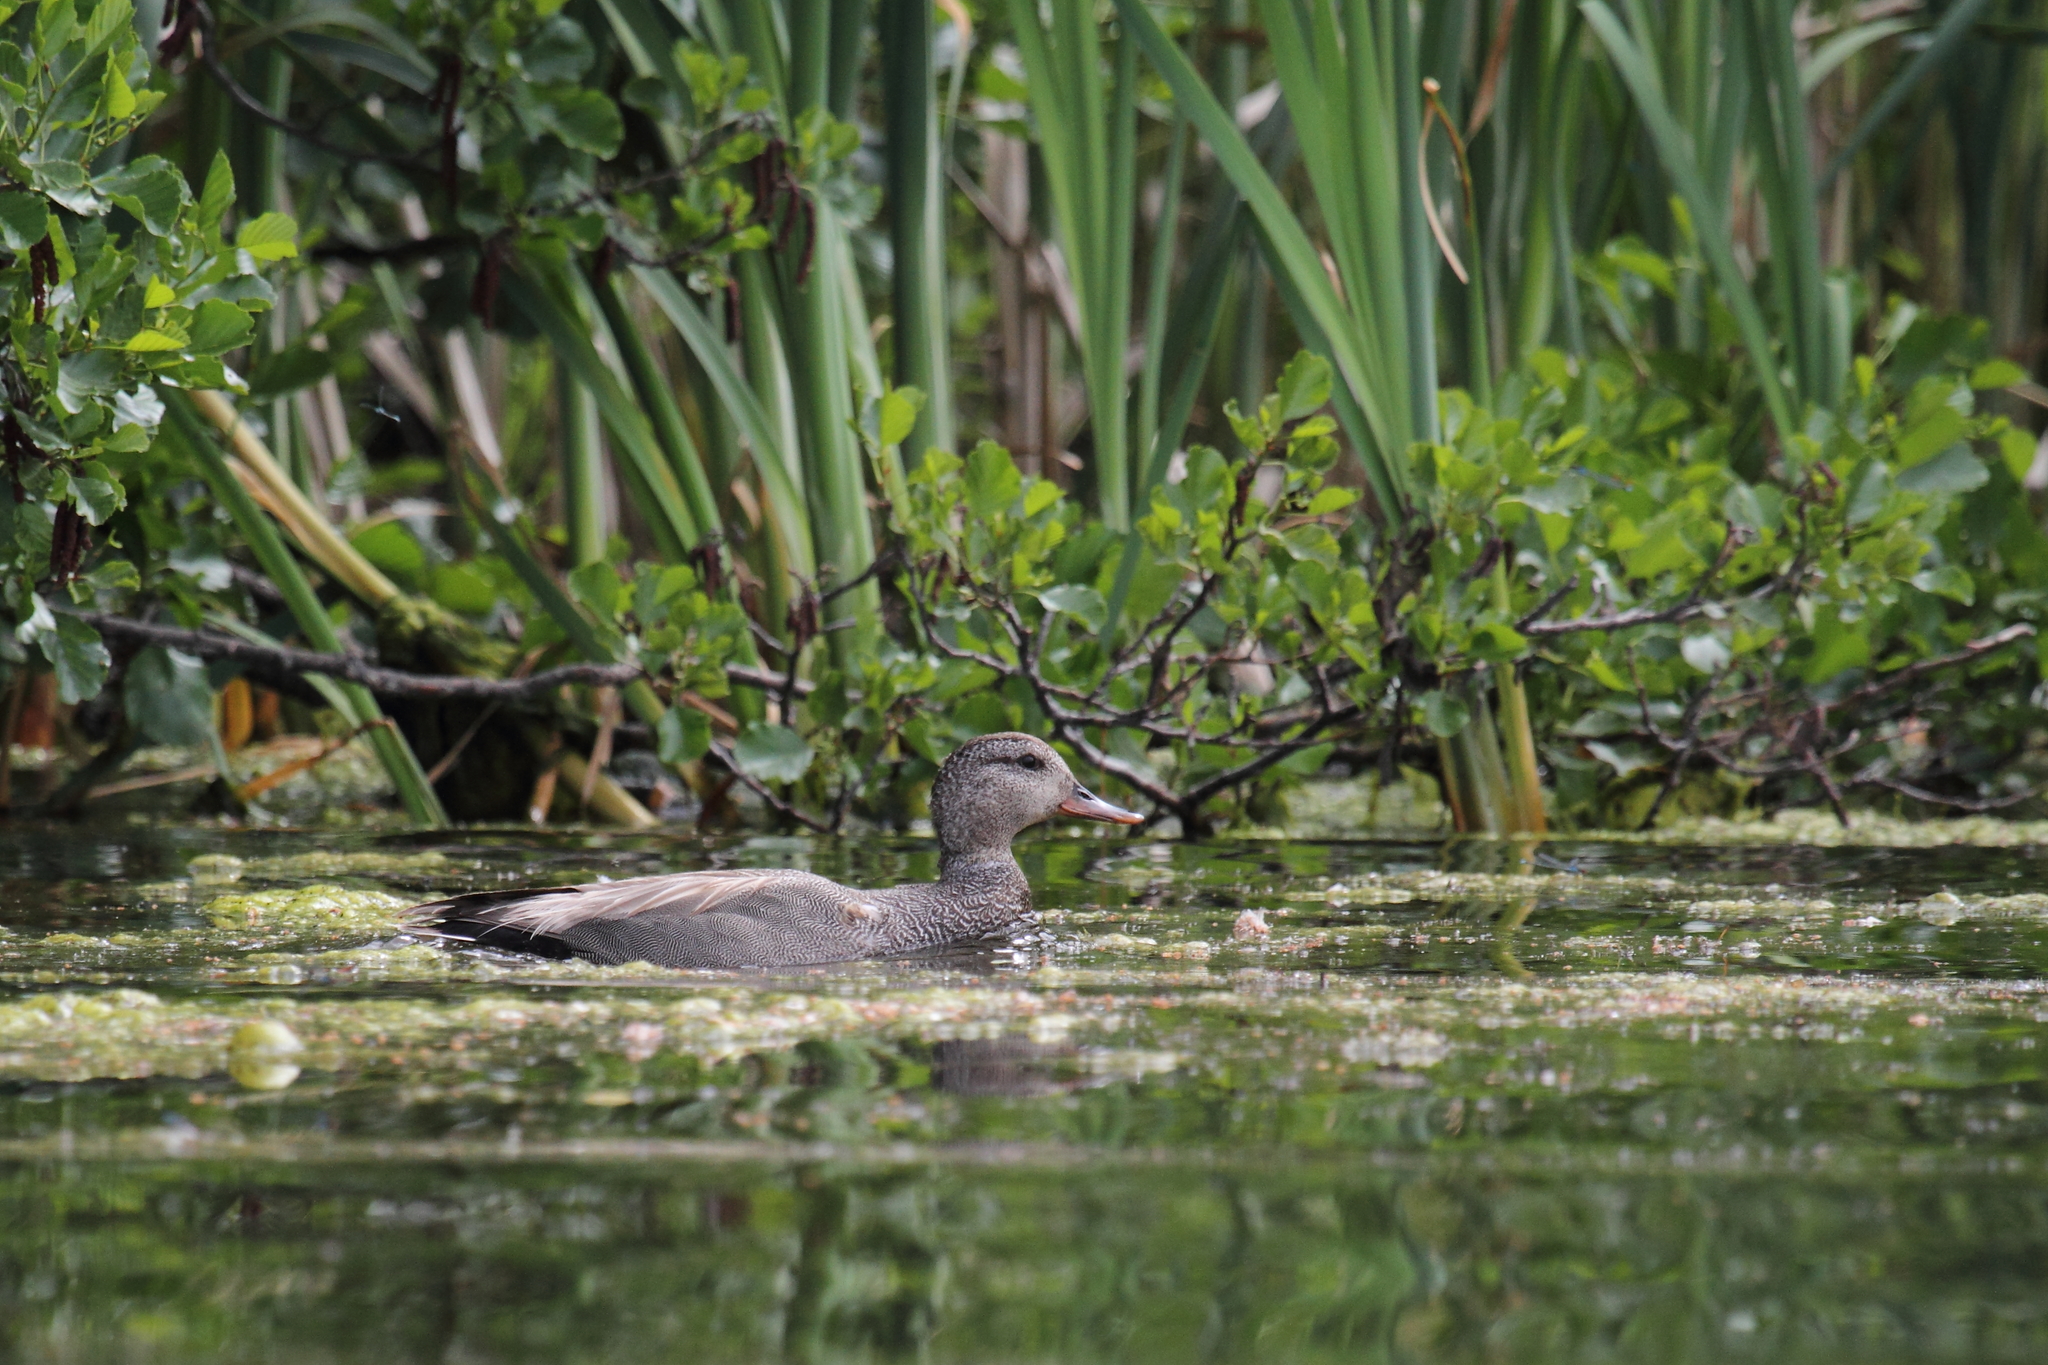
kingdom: Animalia
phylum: Chordata
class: Aves
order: Anseriformes
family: Anatidae
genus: Mareca
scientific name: Mareca strepera
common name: Gadwall
